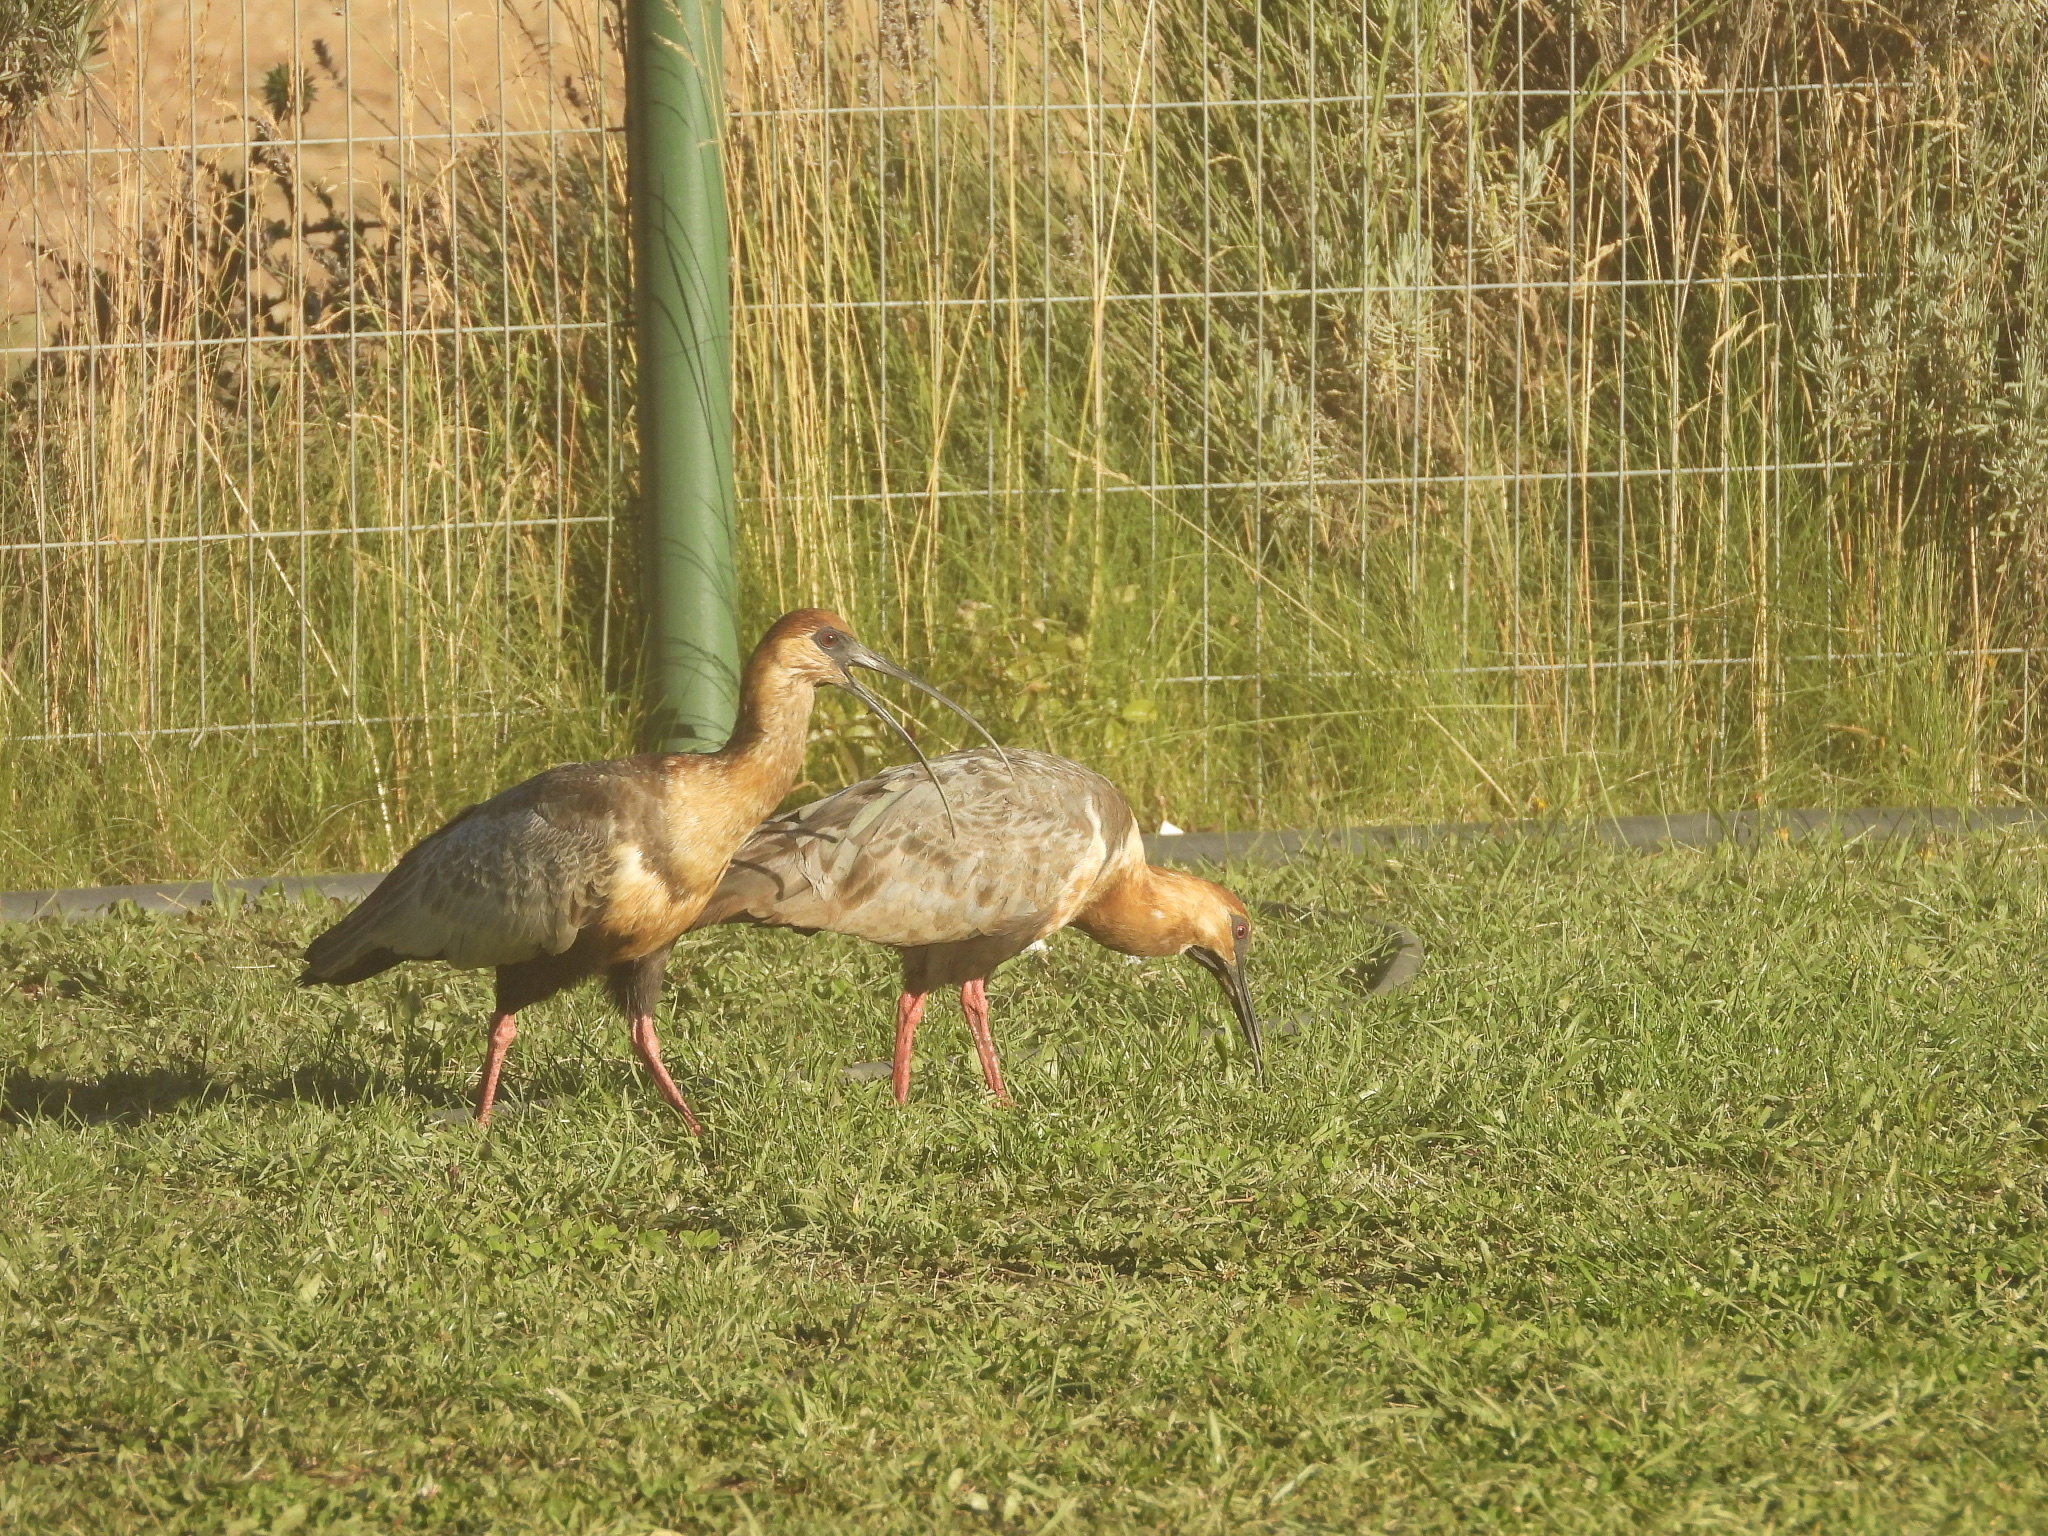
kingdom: Animalia
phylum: Chordata
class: Aves
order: Pelecaniformes
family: Threskiornithidae
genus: Theristicus
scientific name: Theristicus melanopis
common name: Black-faced ibis
